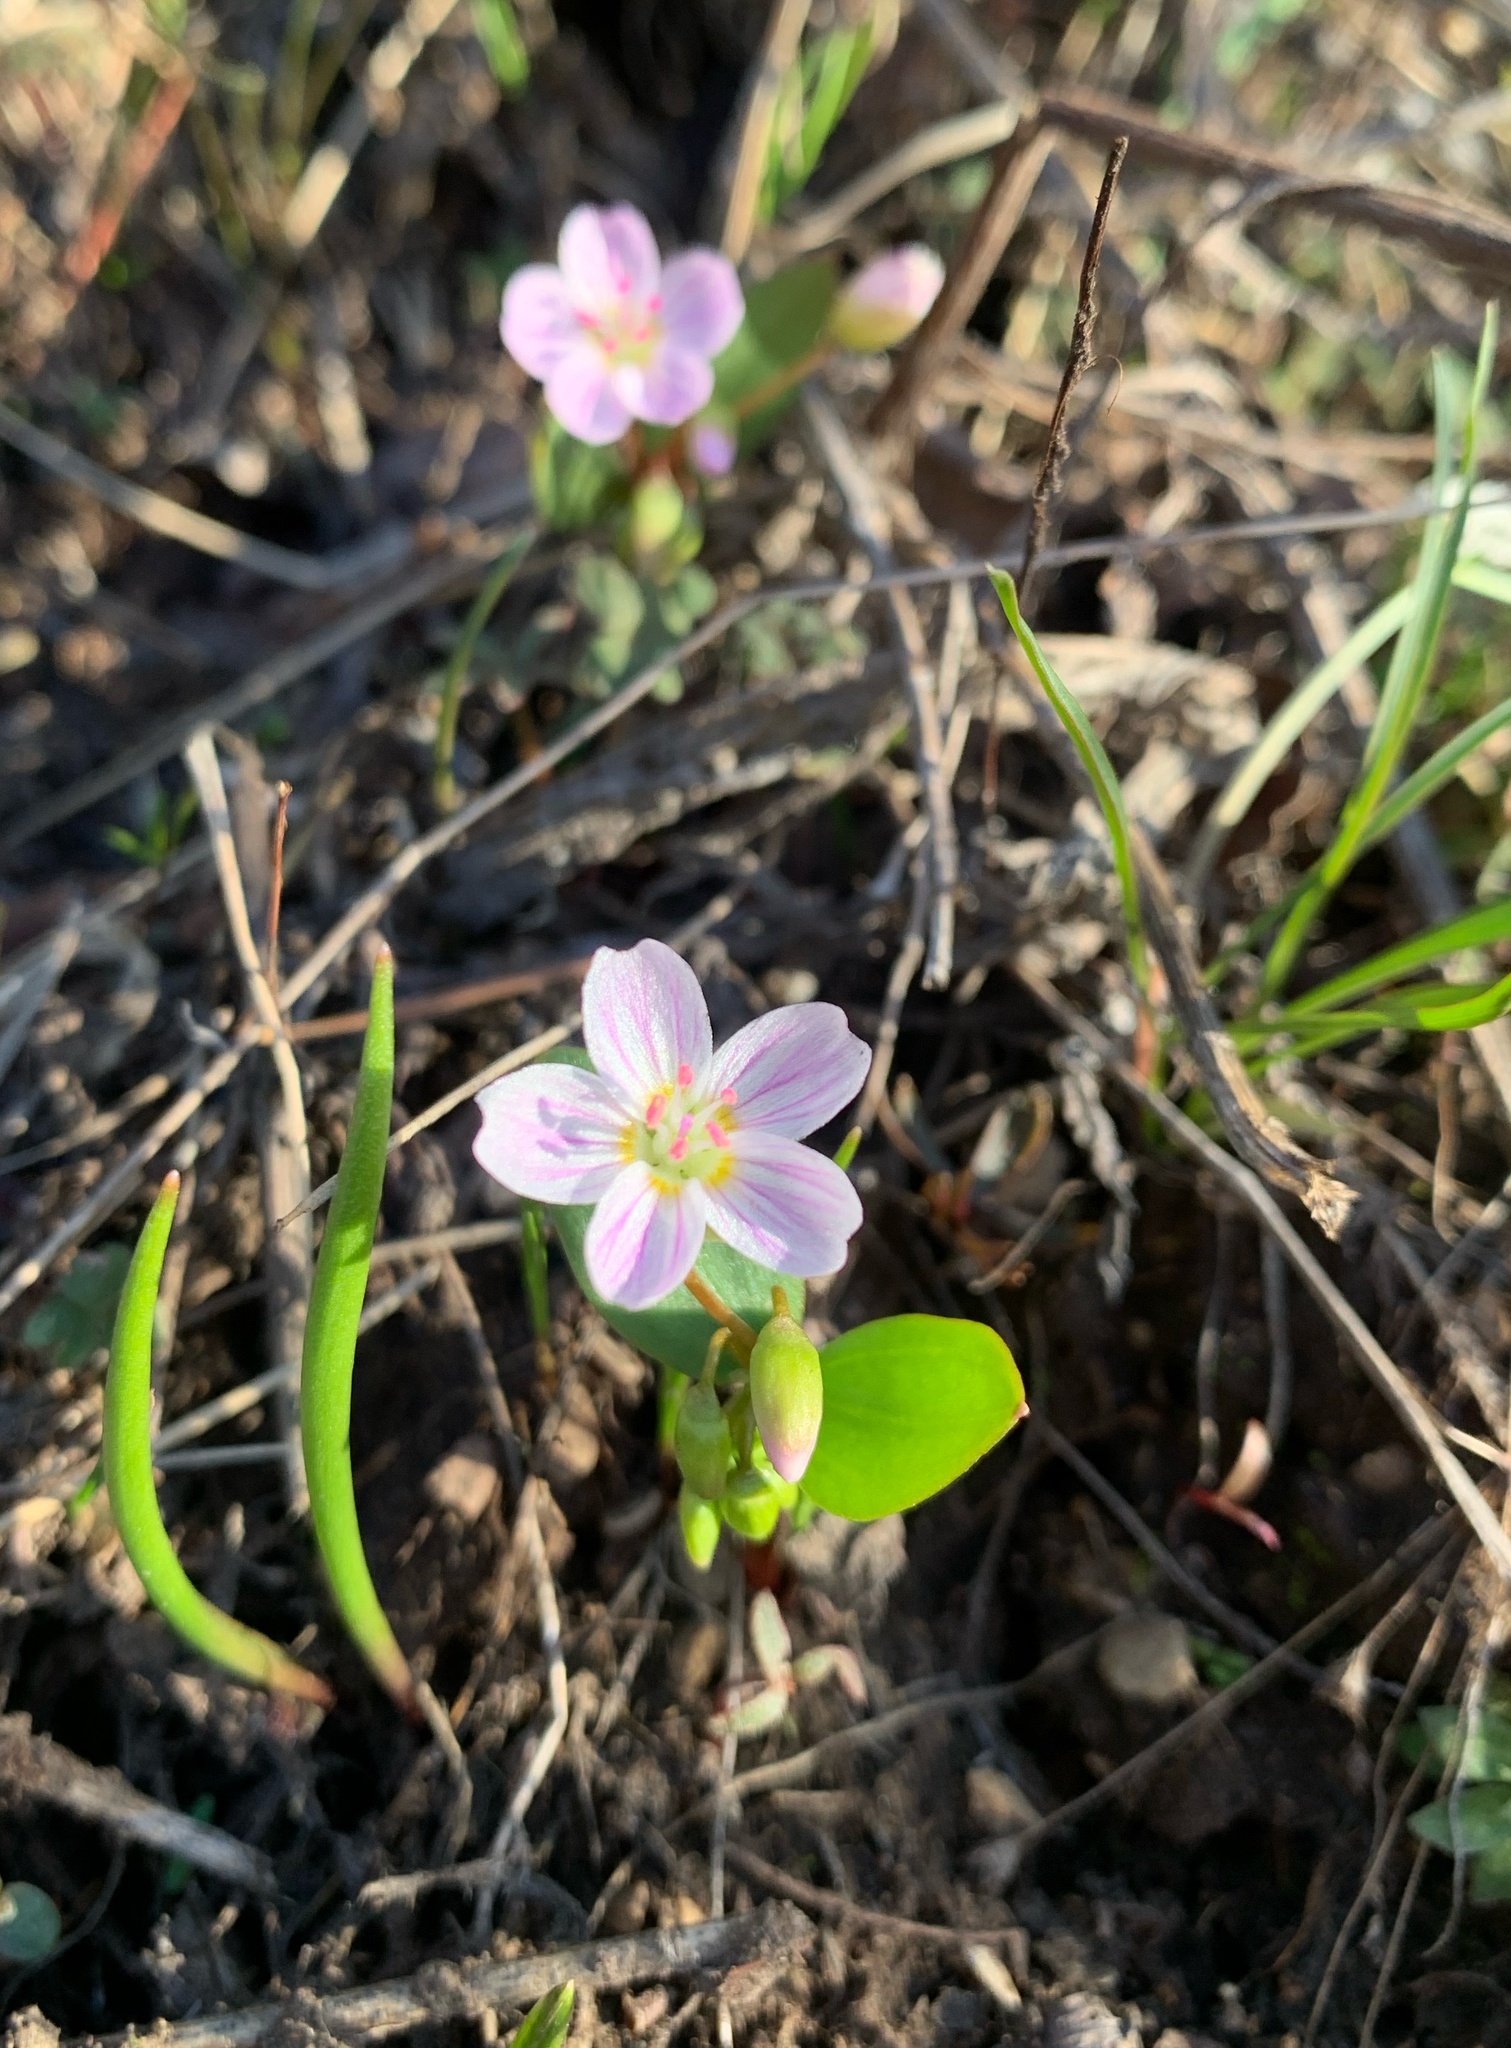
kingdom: Plantae
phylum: Tracheophyta
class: Magnoliopsida
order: Caryophyllales
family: Montiaceae
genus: Claytonia
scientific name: Claytonia lanceolata
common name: Western spring-beauty
